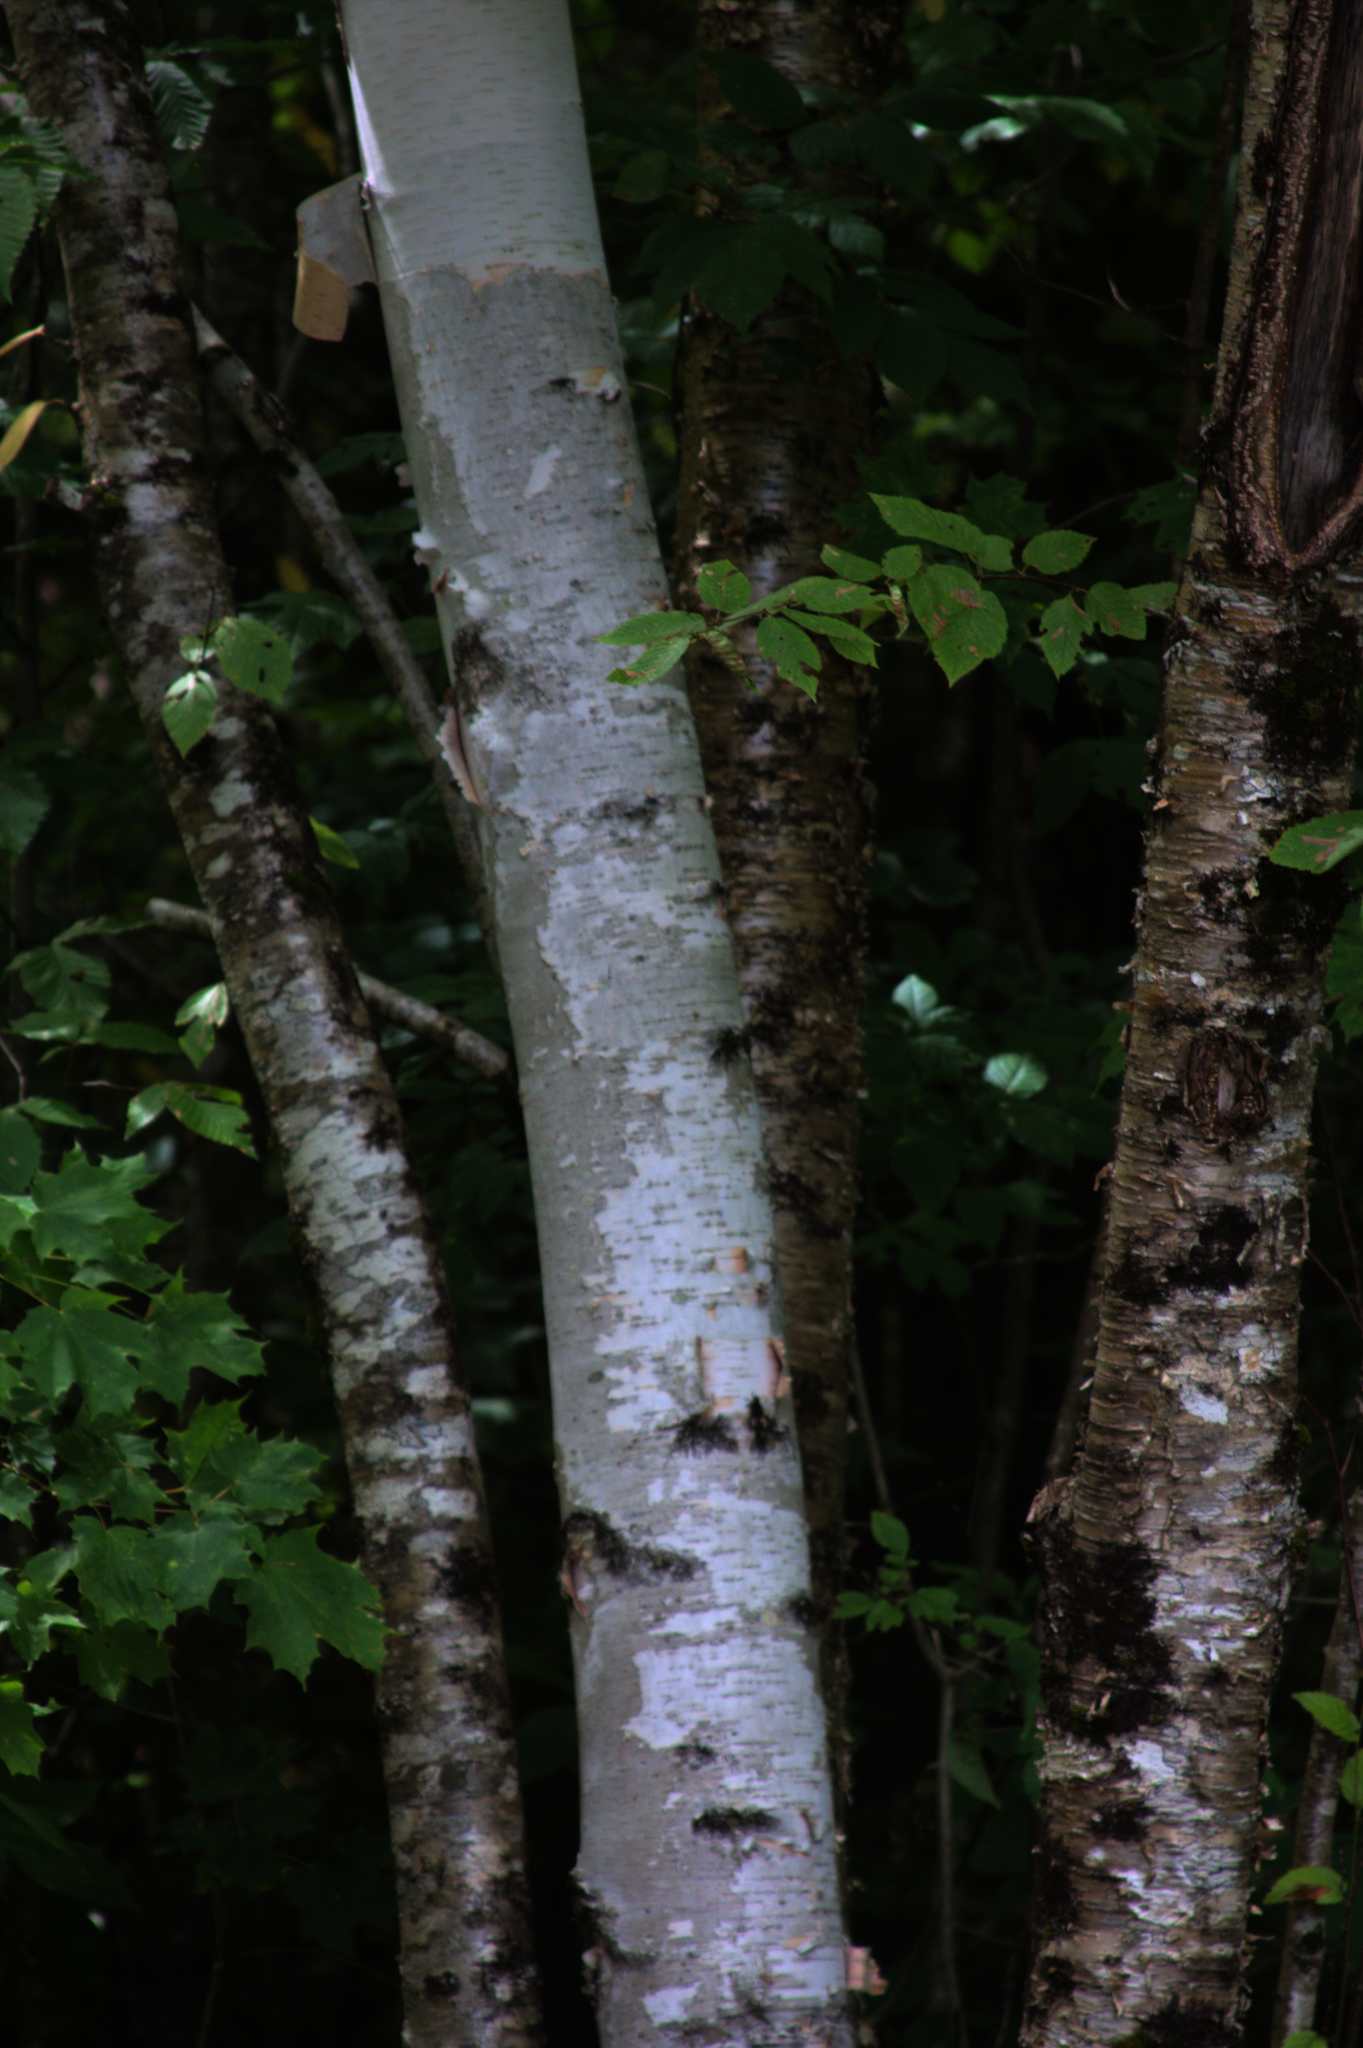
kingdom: Plantae
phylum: Tracheophyta
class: Magnoliopsida
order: Fagales
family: Betulaceae
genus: Betula
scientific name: Betula papyrifera
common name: Paper birch
